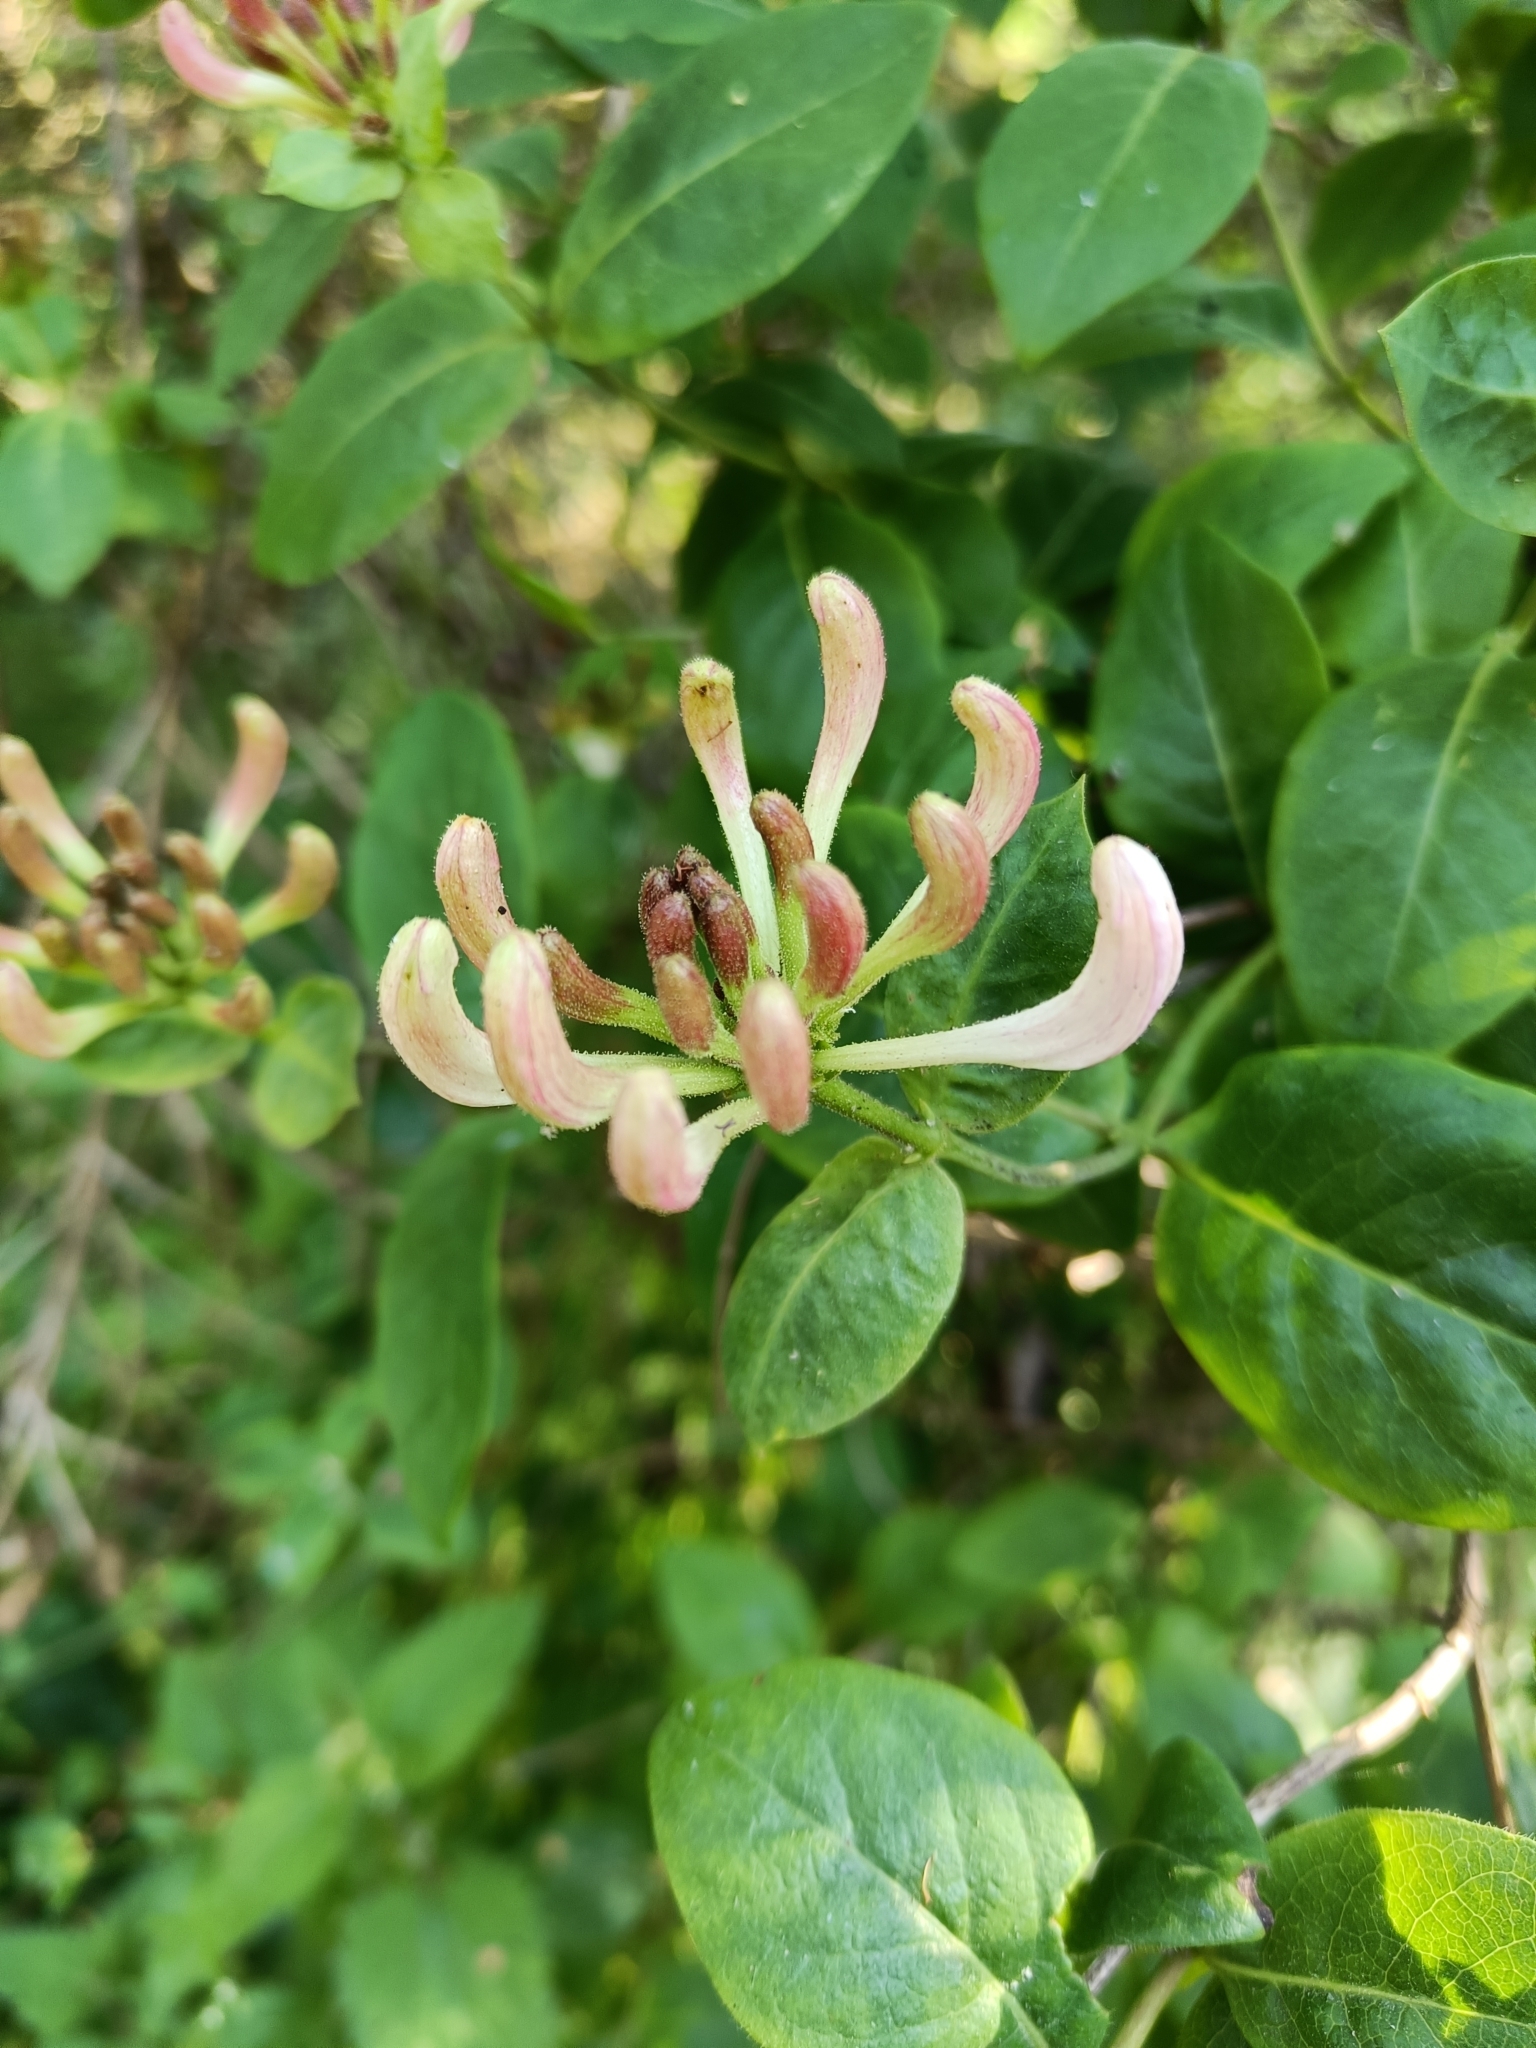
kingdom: Plantae
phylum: Tracheophyta
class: Magnoliopsida
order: Dipsacales
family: Caprifoliaceae
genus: Lonicera
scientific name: Lonicera periclymenum
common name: European honeysuckle
